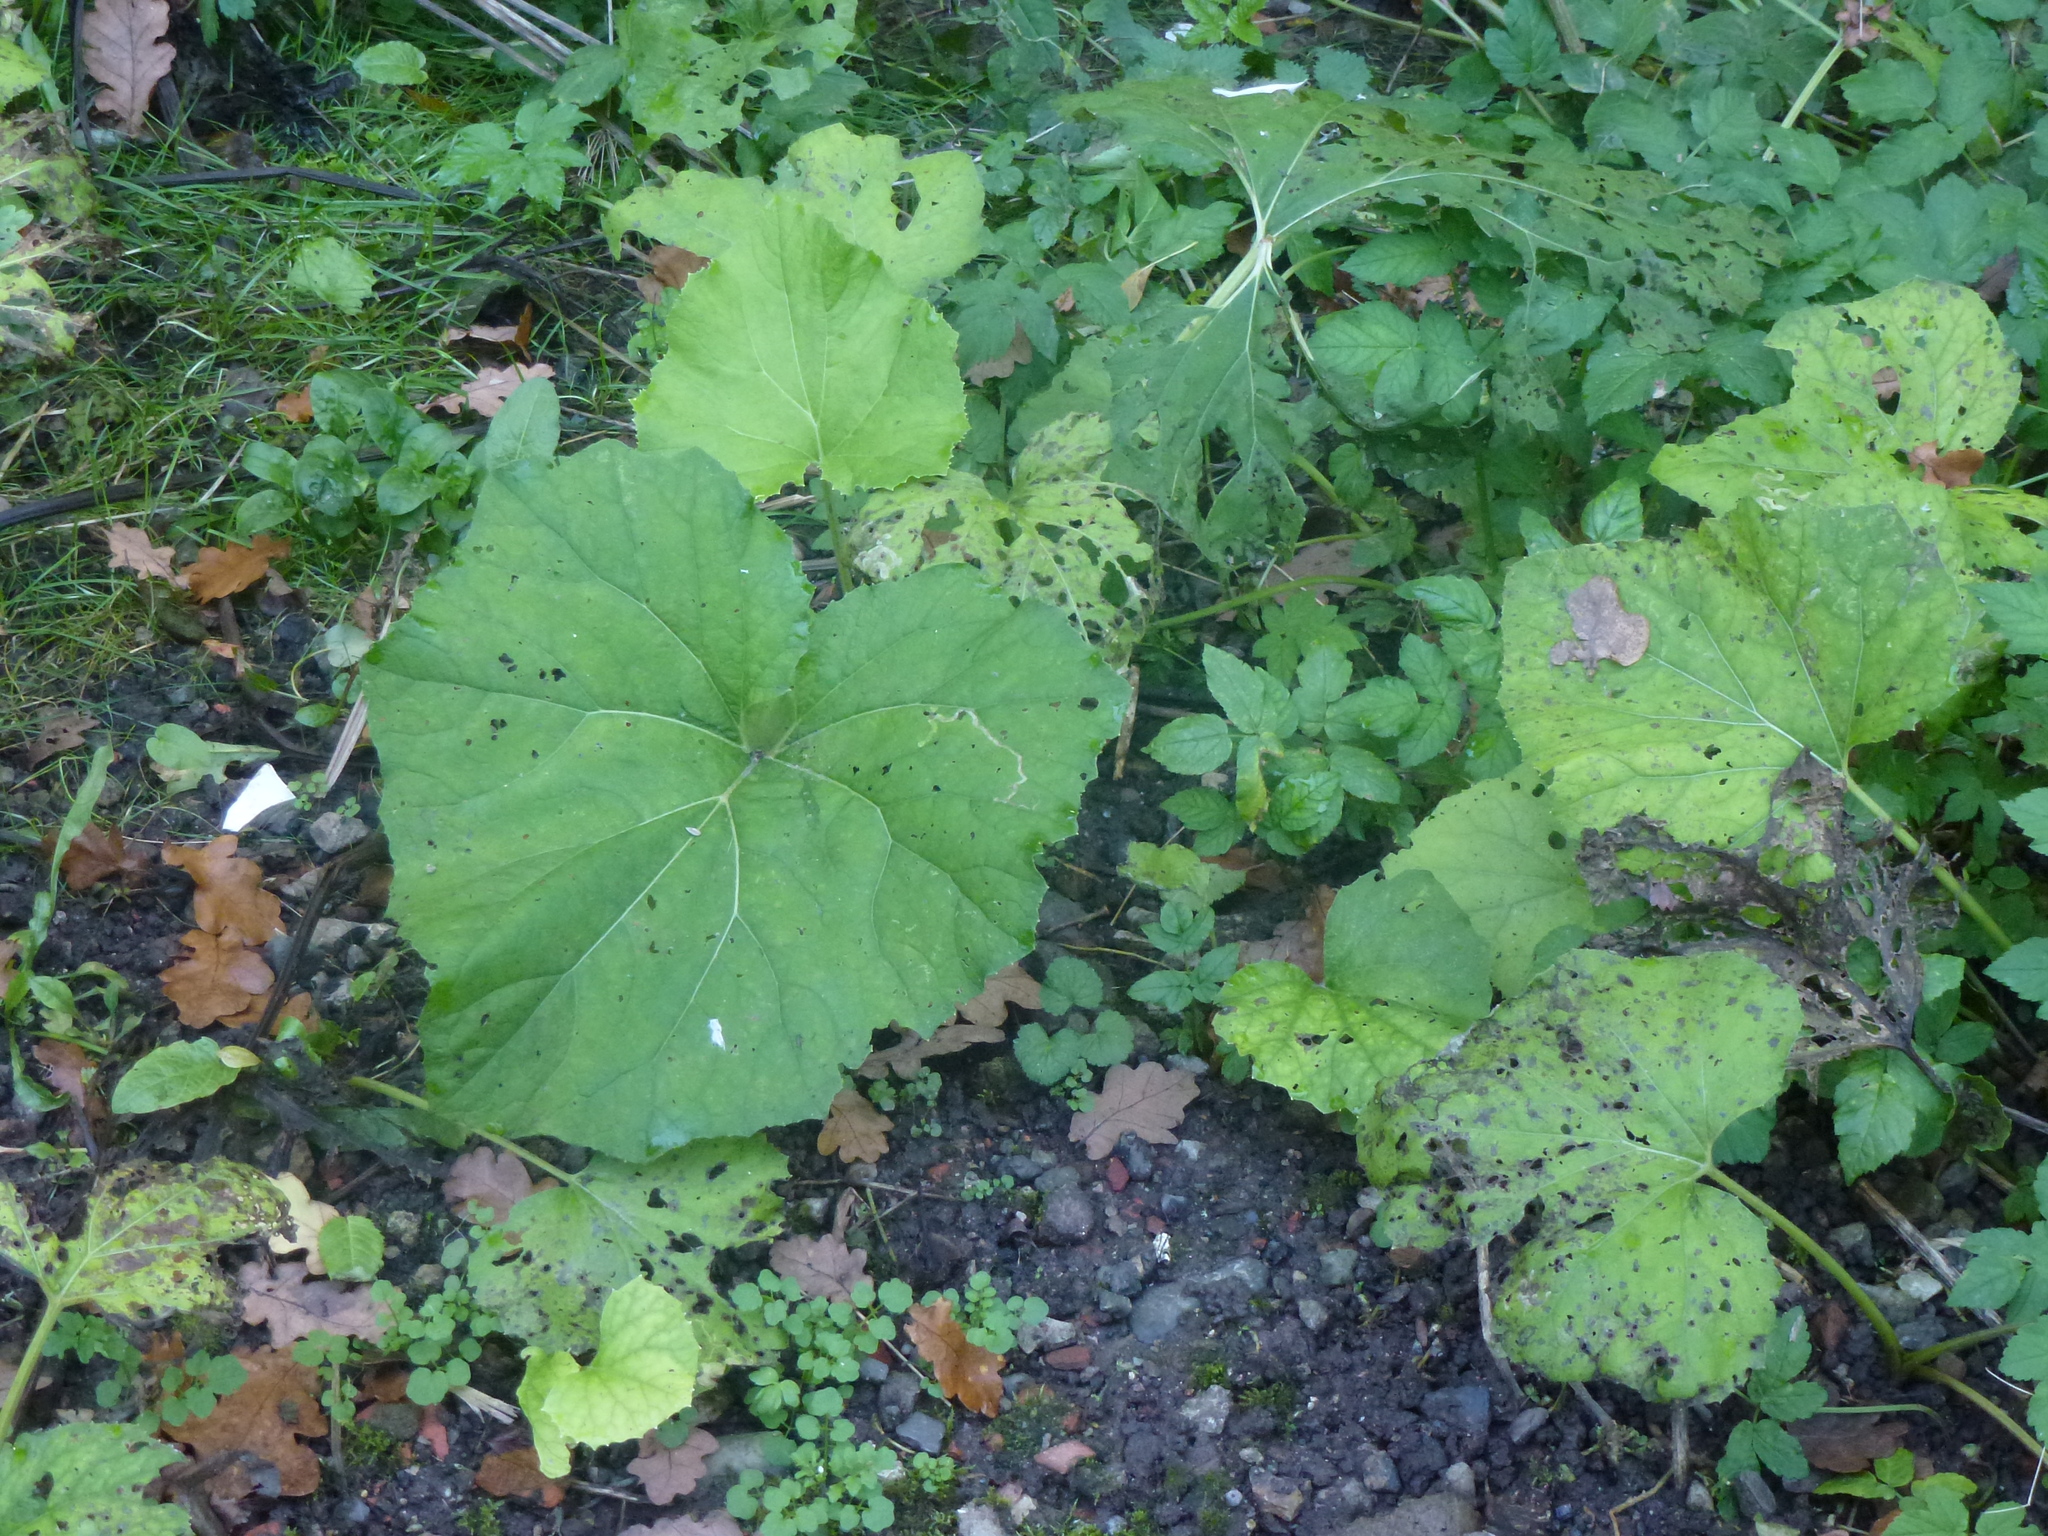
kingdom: Plantae
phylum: Tracheophyta
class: Magnoliopsida
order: Asterales
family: Asteraceae
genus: Tussilago
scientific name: Tussilago farfara
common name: Coltsfoot
